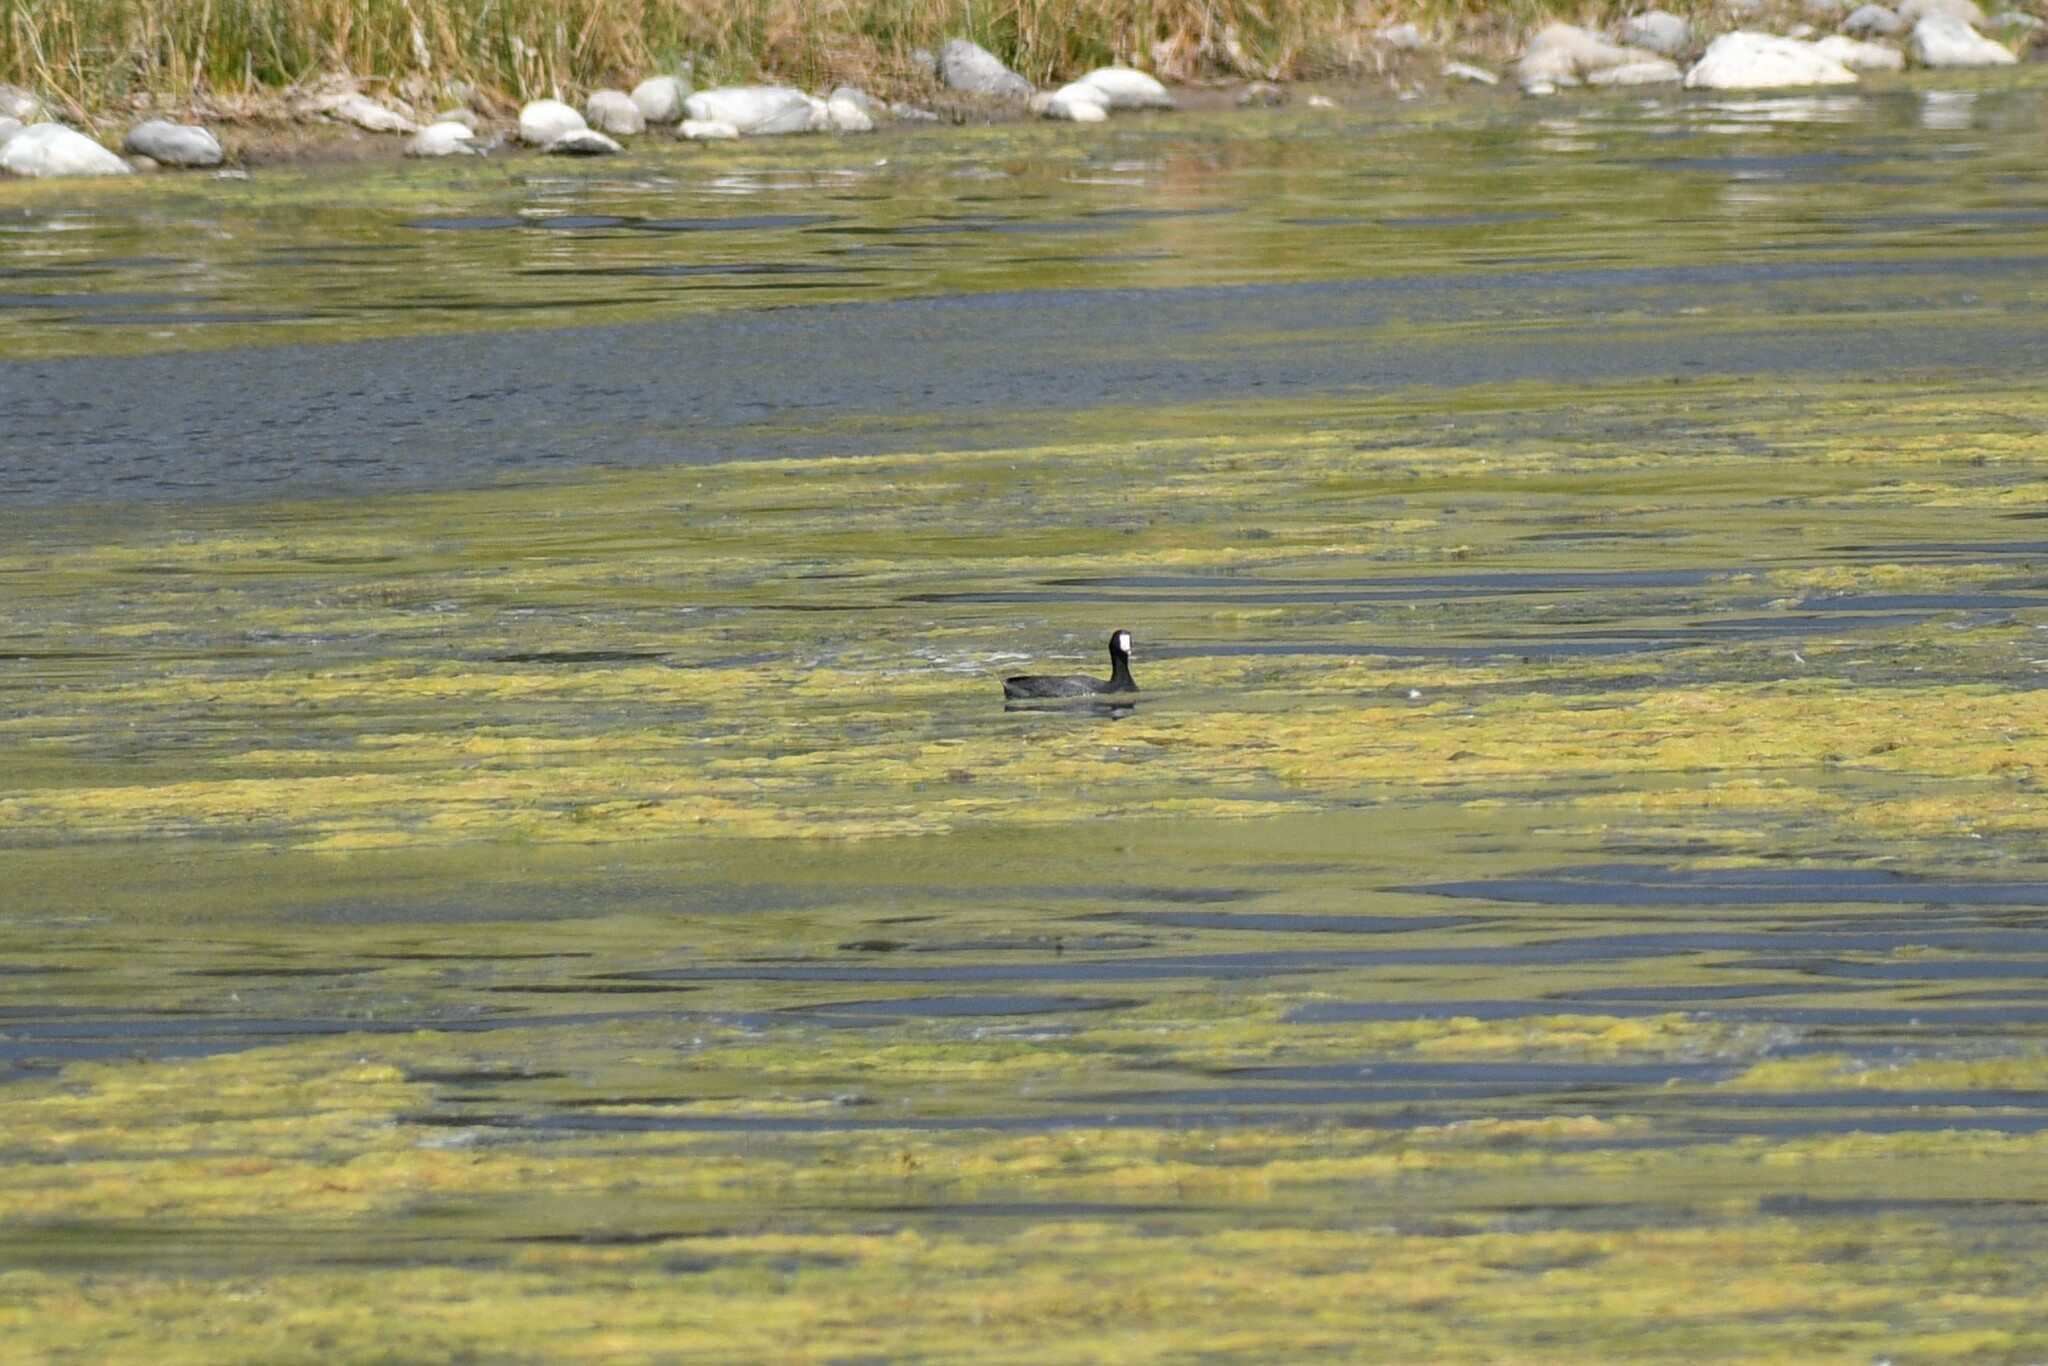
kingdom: Animalia
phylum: Chordata
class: Aves
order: Gruiformes
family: Rallidae
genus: Fulica
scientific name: Fulica americana
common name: American coot
